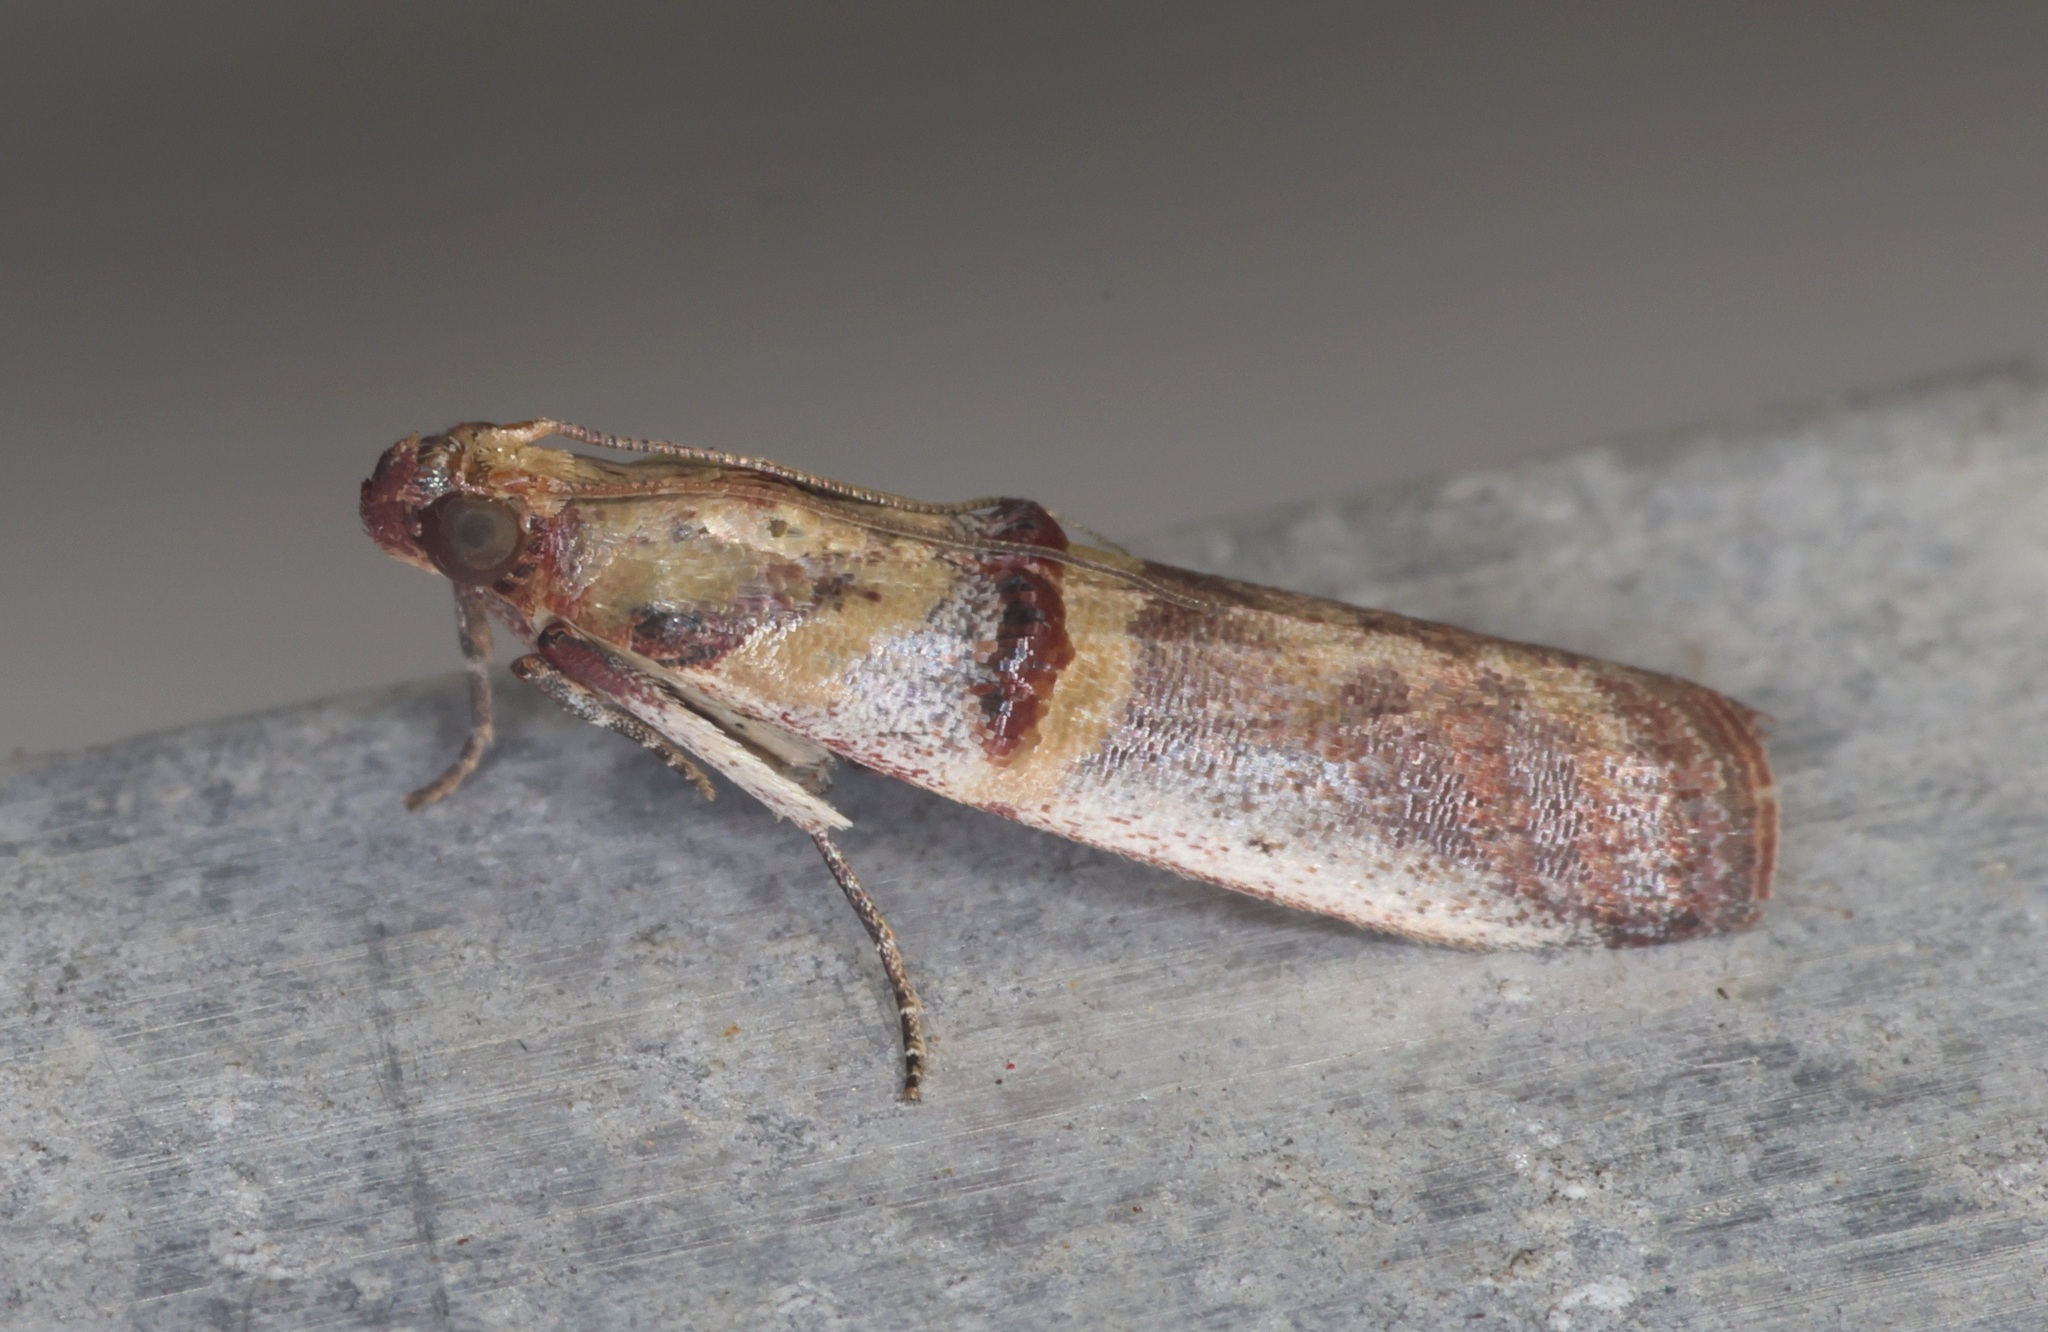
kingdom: Animalia
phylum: Arthropoda
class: Insecta
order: Lepidoptera
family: Pyralidae
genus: Hypargyria
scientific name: Hypargyria metalliferella
